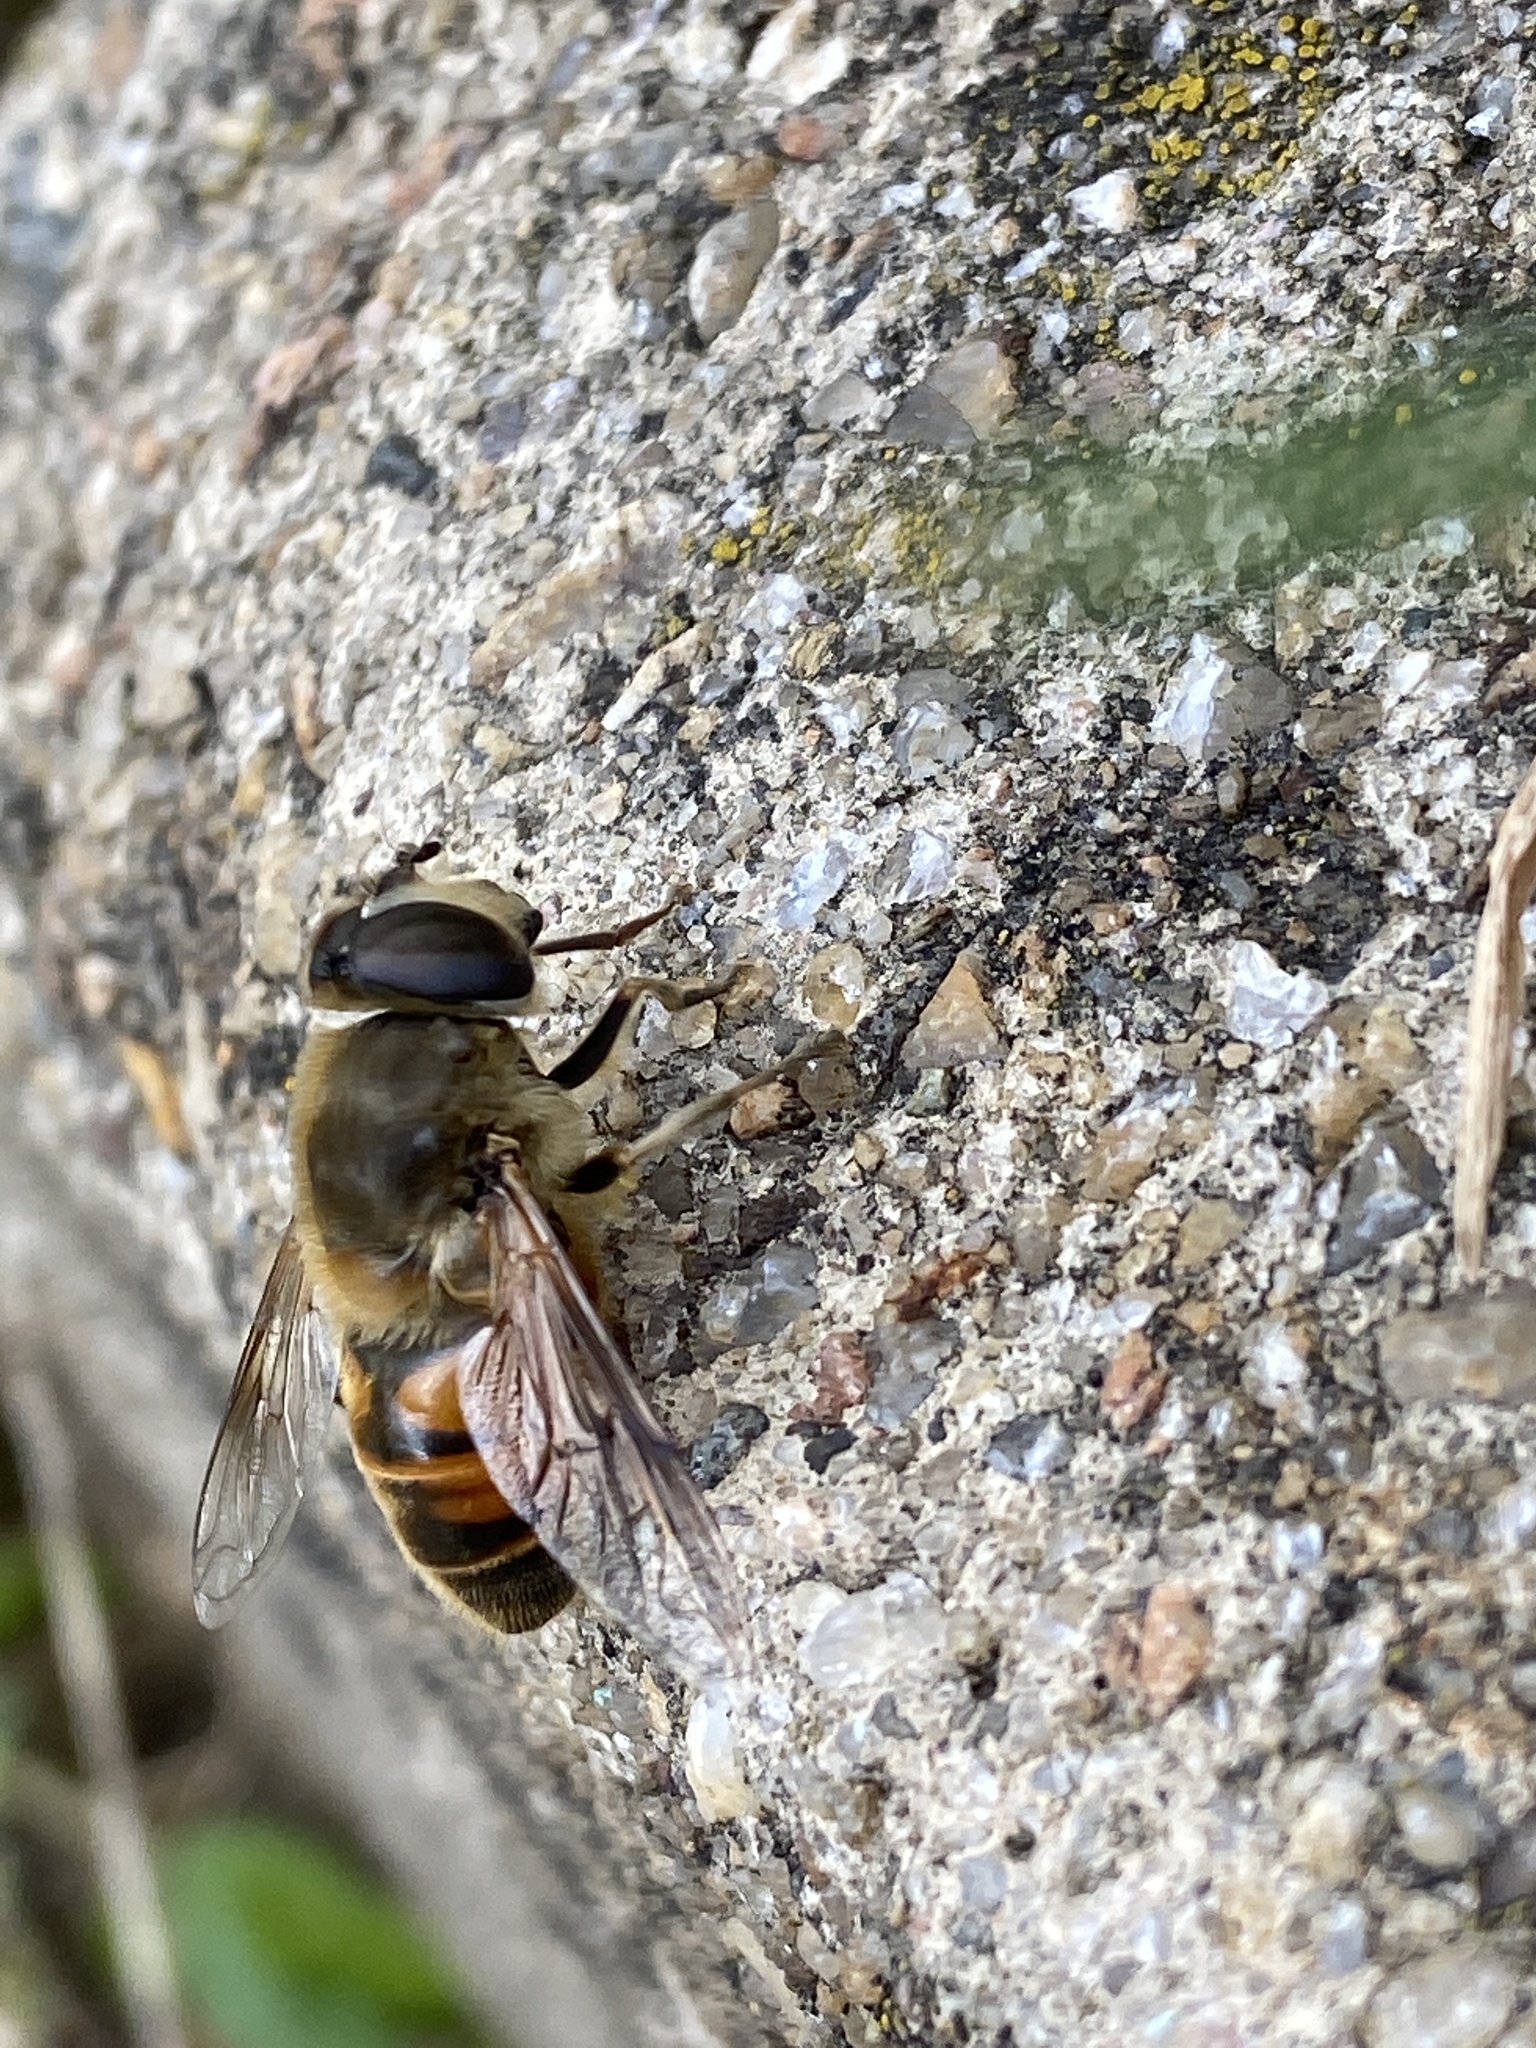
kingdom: Animalia
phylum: Arthropoda
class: Insecta
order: Diptera
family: Syrphidae
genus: Eristalis
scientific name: Eristalis tenax
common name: Drone fly
